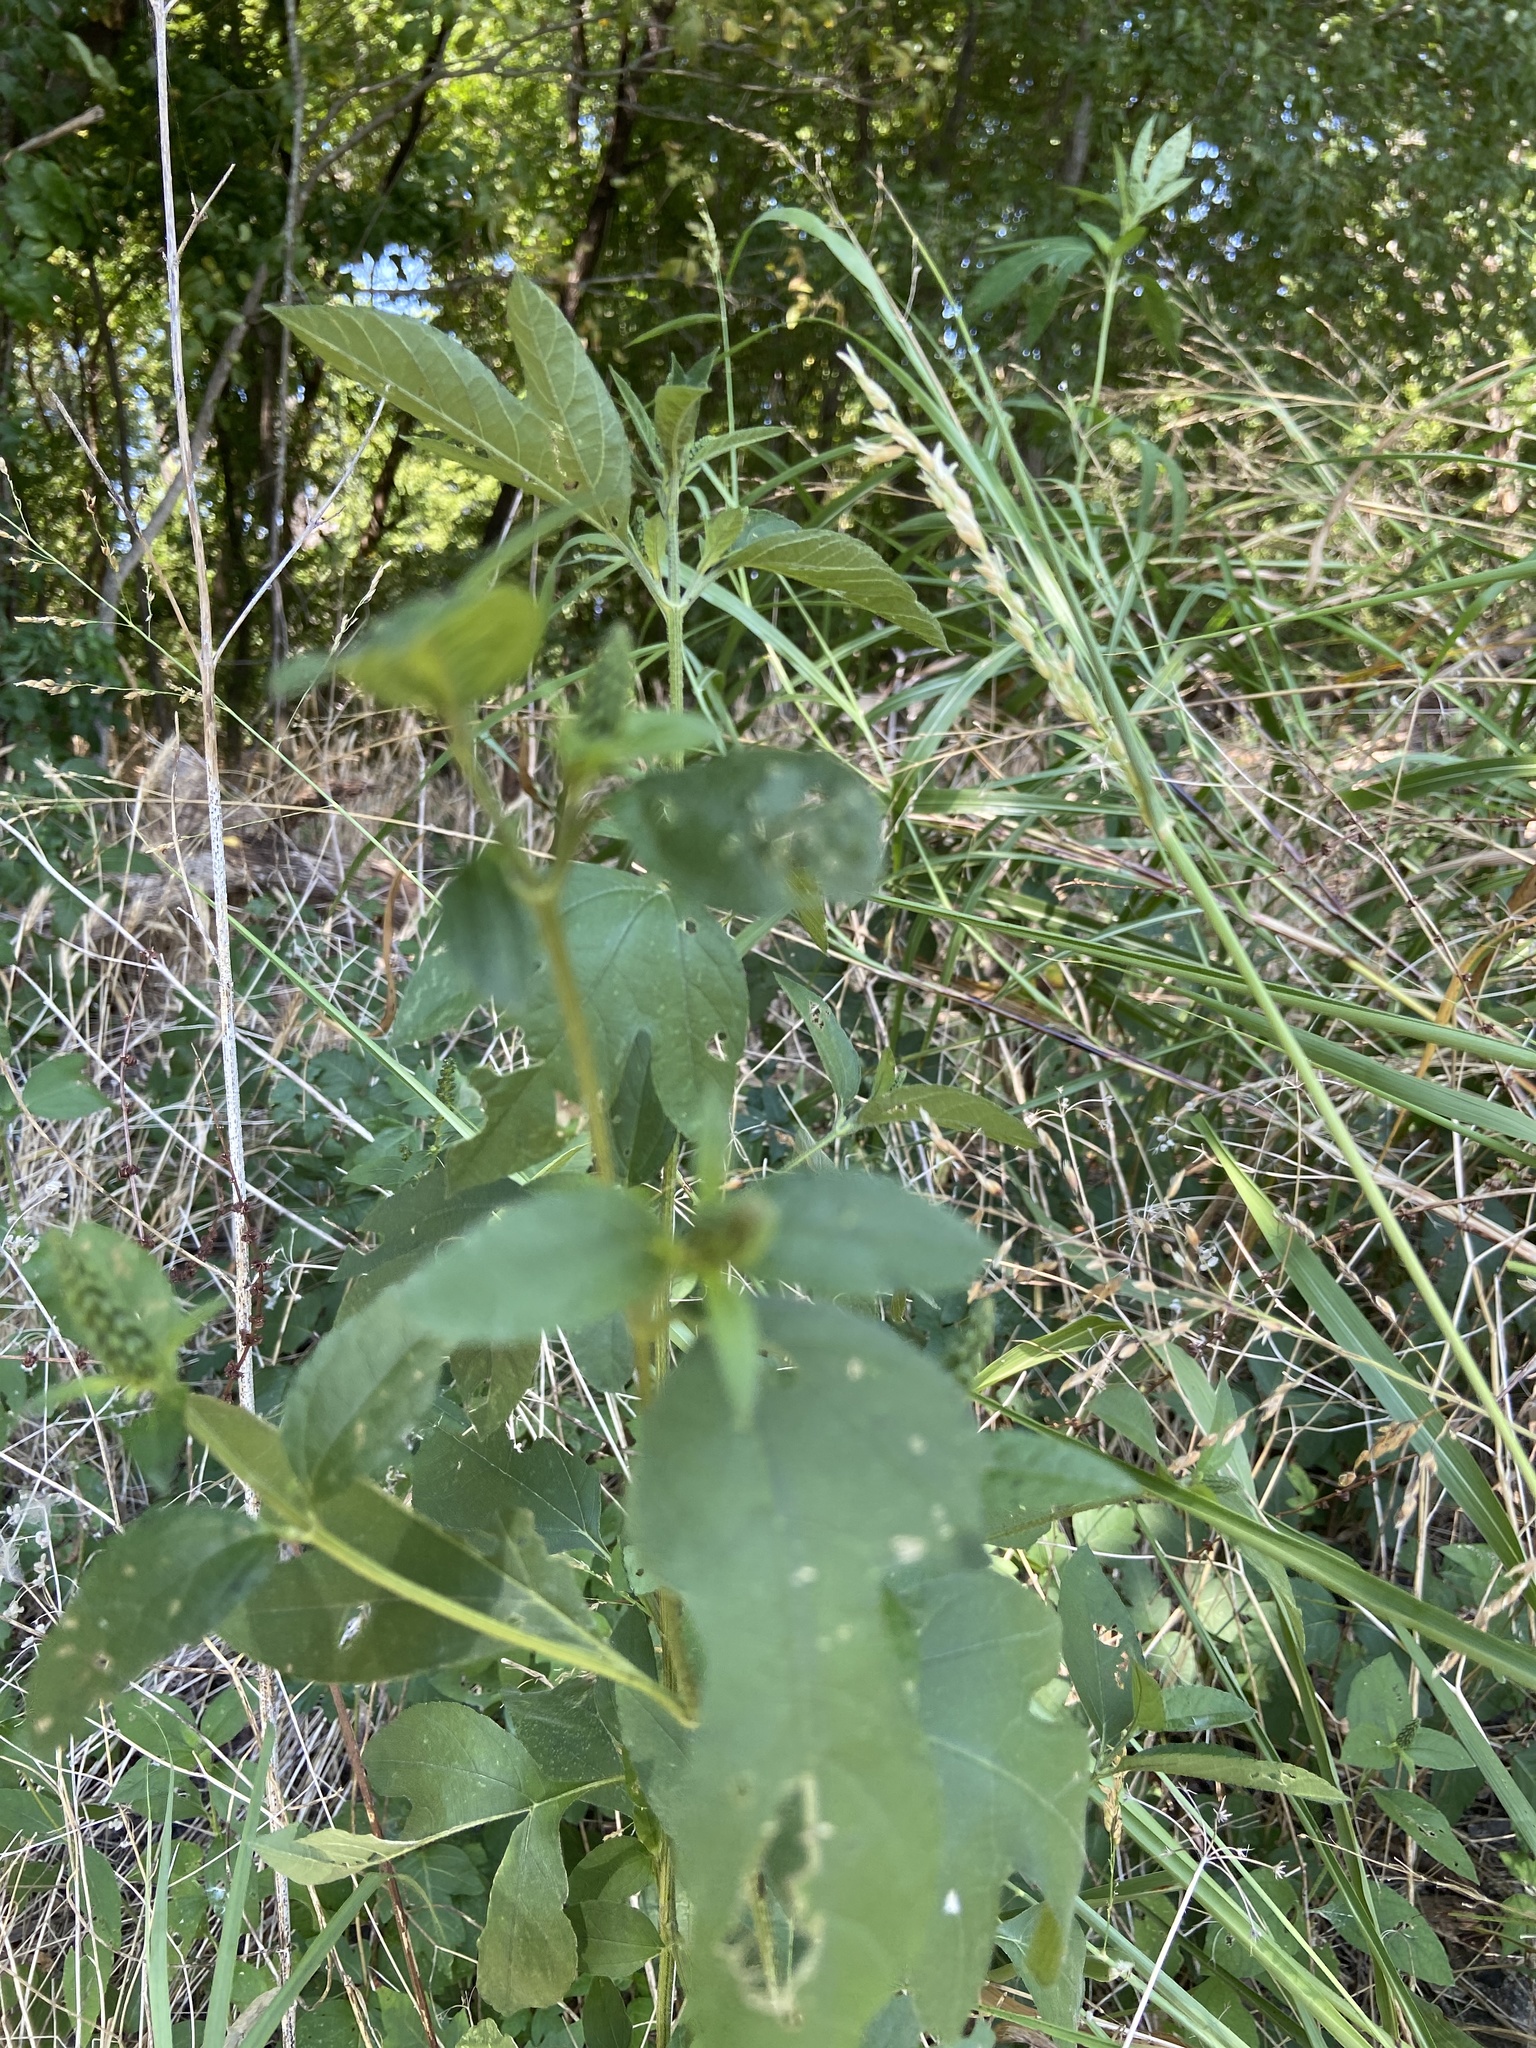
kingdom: Plantae
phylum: Tracheophyta
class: Magnoliopsida
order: Asterales
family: Asteraceae
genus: Ambrosia
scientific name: Ambrosia trifida
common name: Giant ragweed
